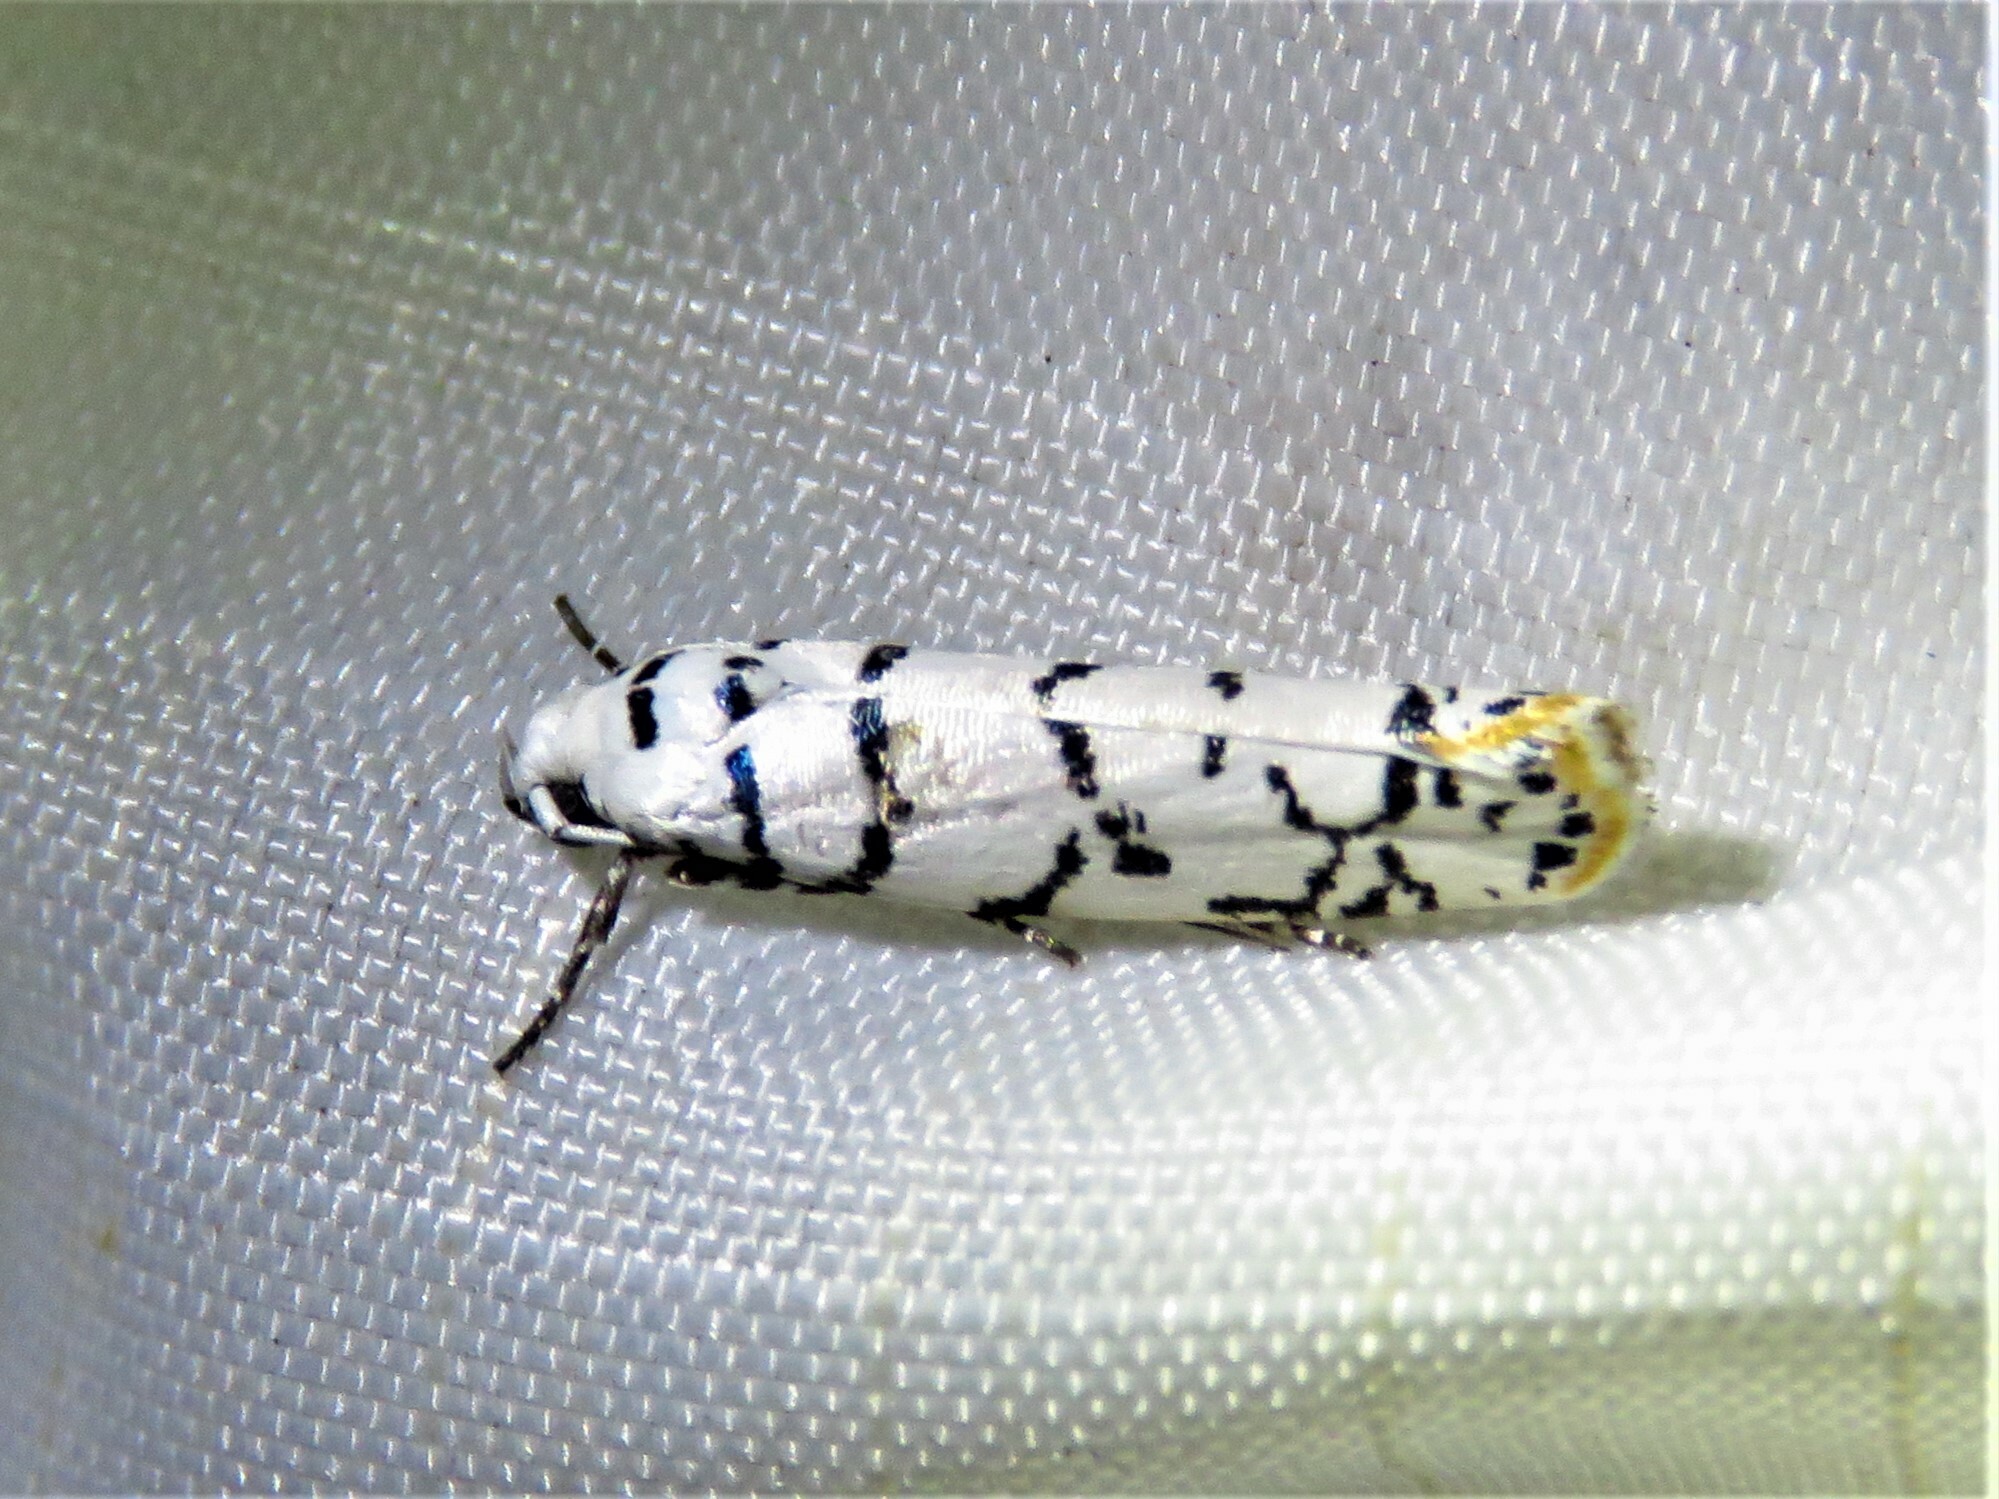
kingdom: Animalia
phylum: Arthropoda
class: Insecta
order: Lepidoptera
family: Ethmiidae
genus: Ethmia
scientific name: Ethmia delliella
